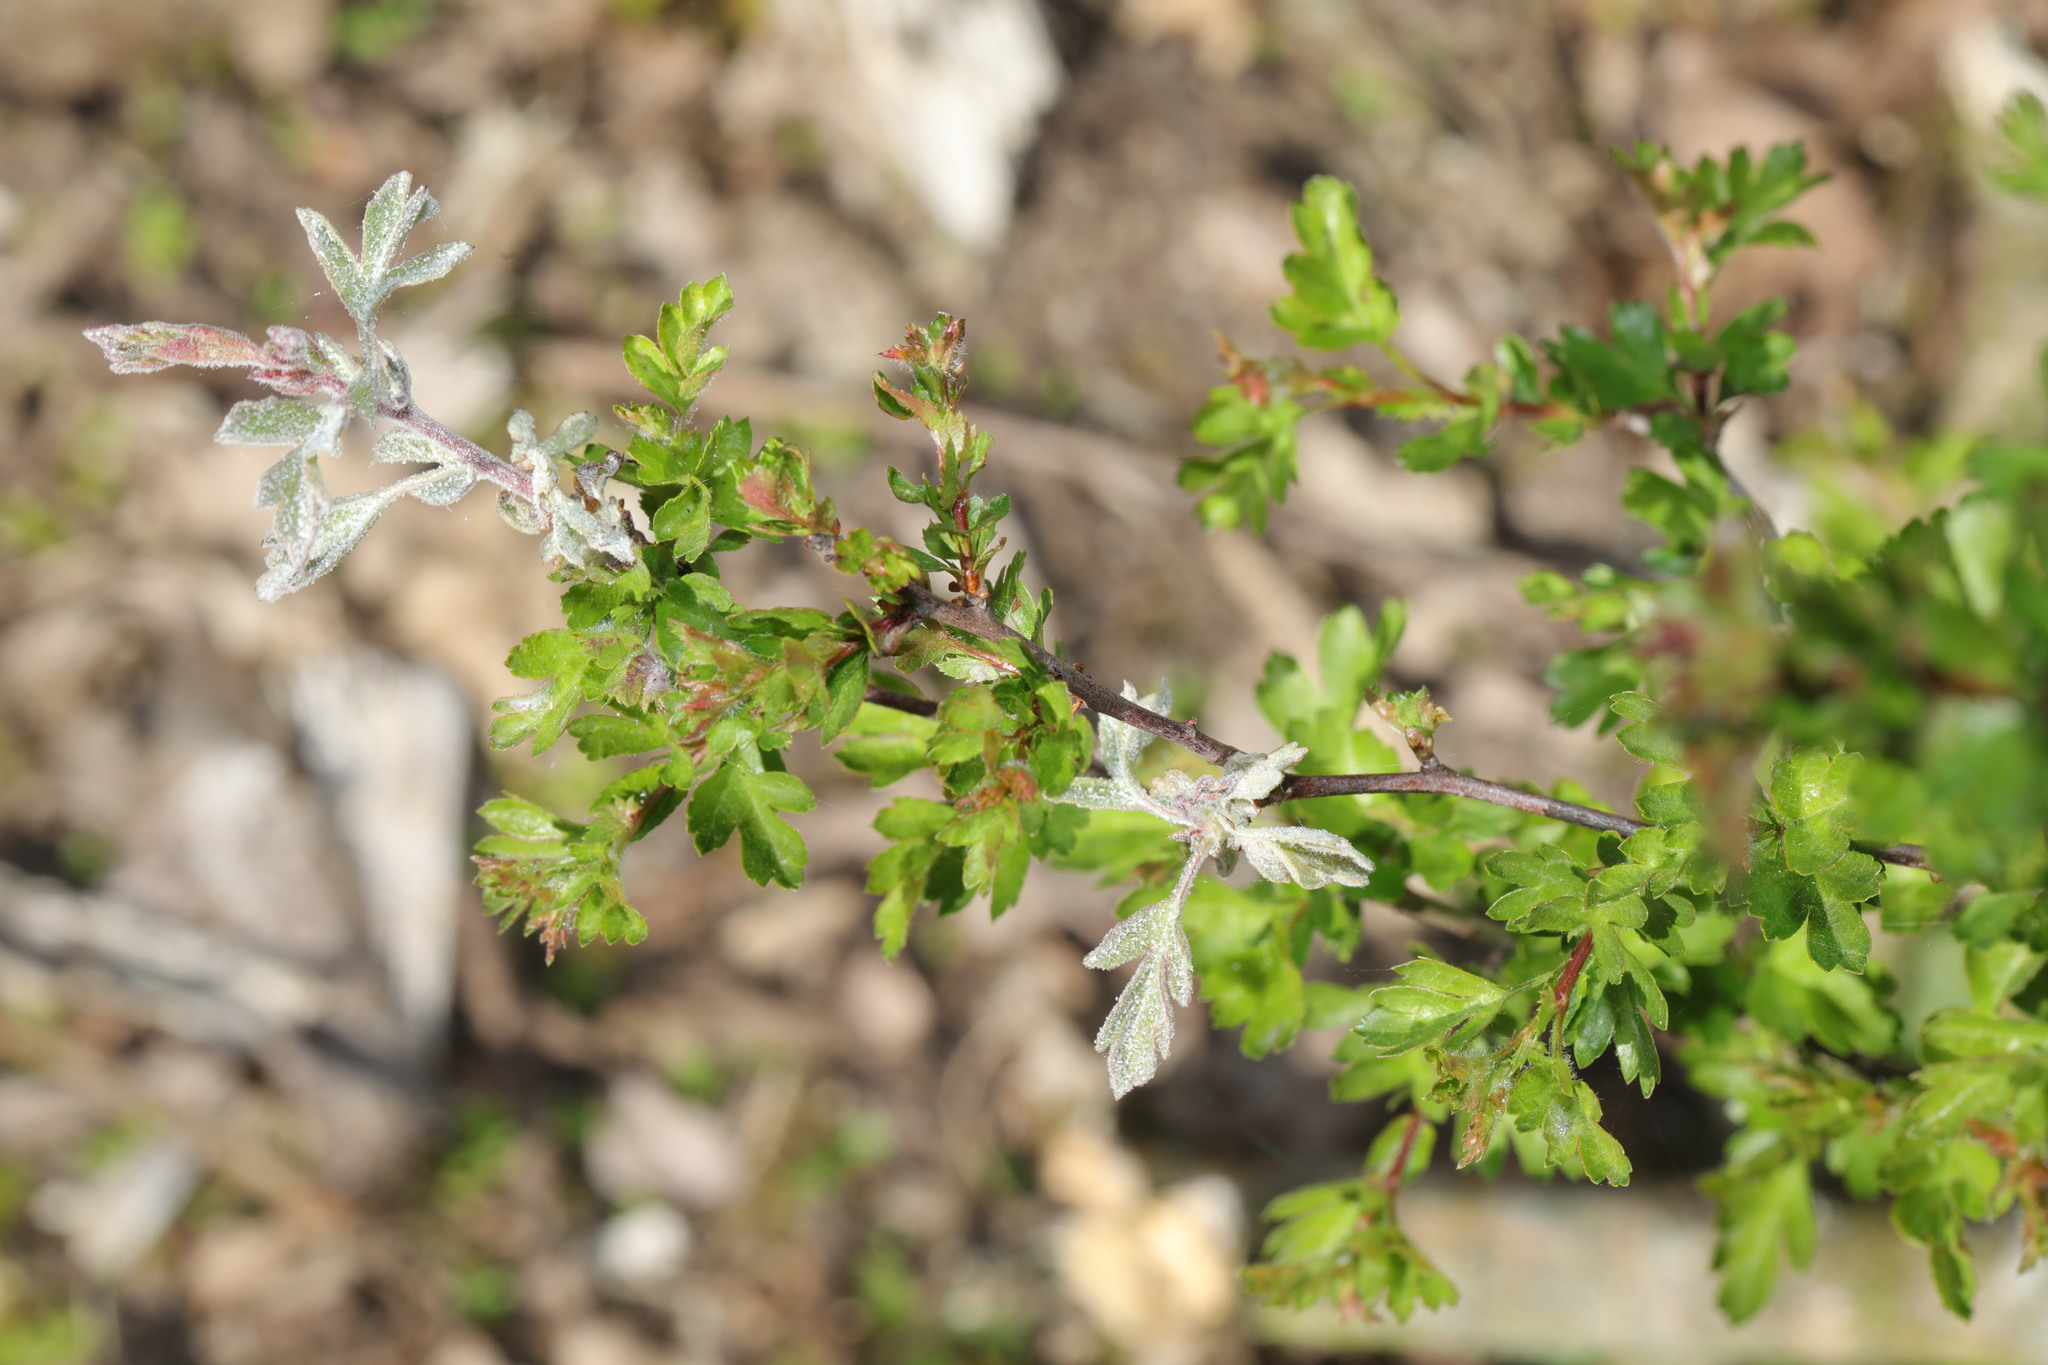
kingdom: Fungi
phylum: Ascomycota
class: Leotiomycetes
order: Helotiales
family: Erysiphaceae
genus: Podosphaera
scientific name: Podosphaera clandestina
